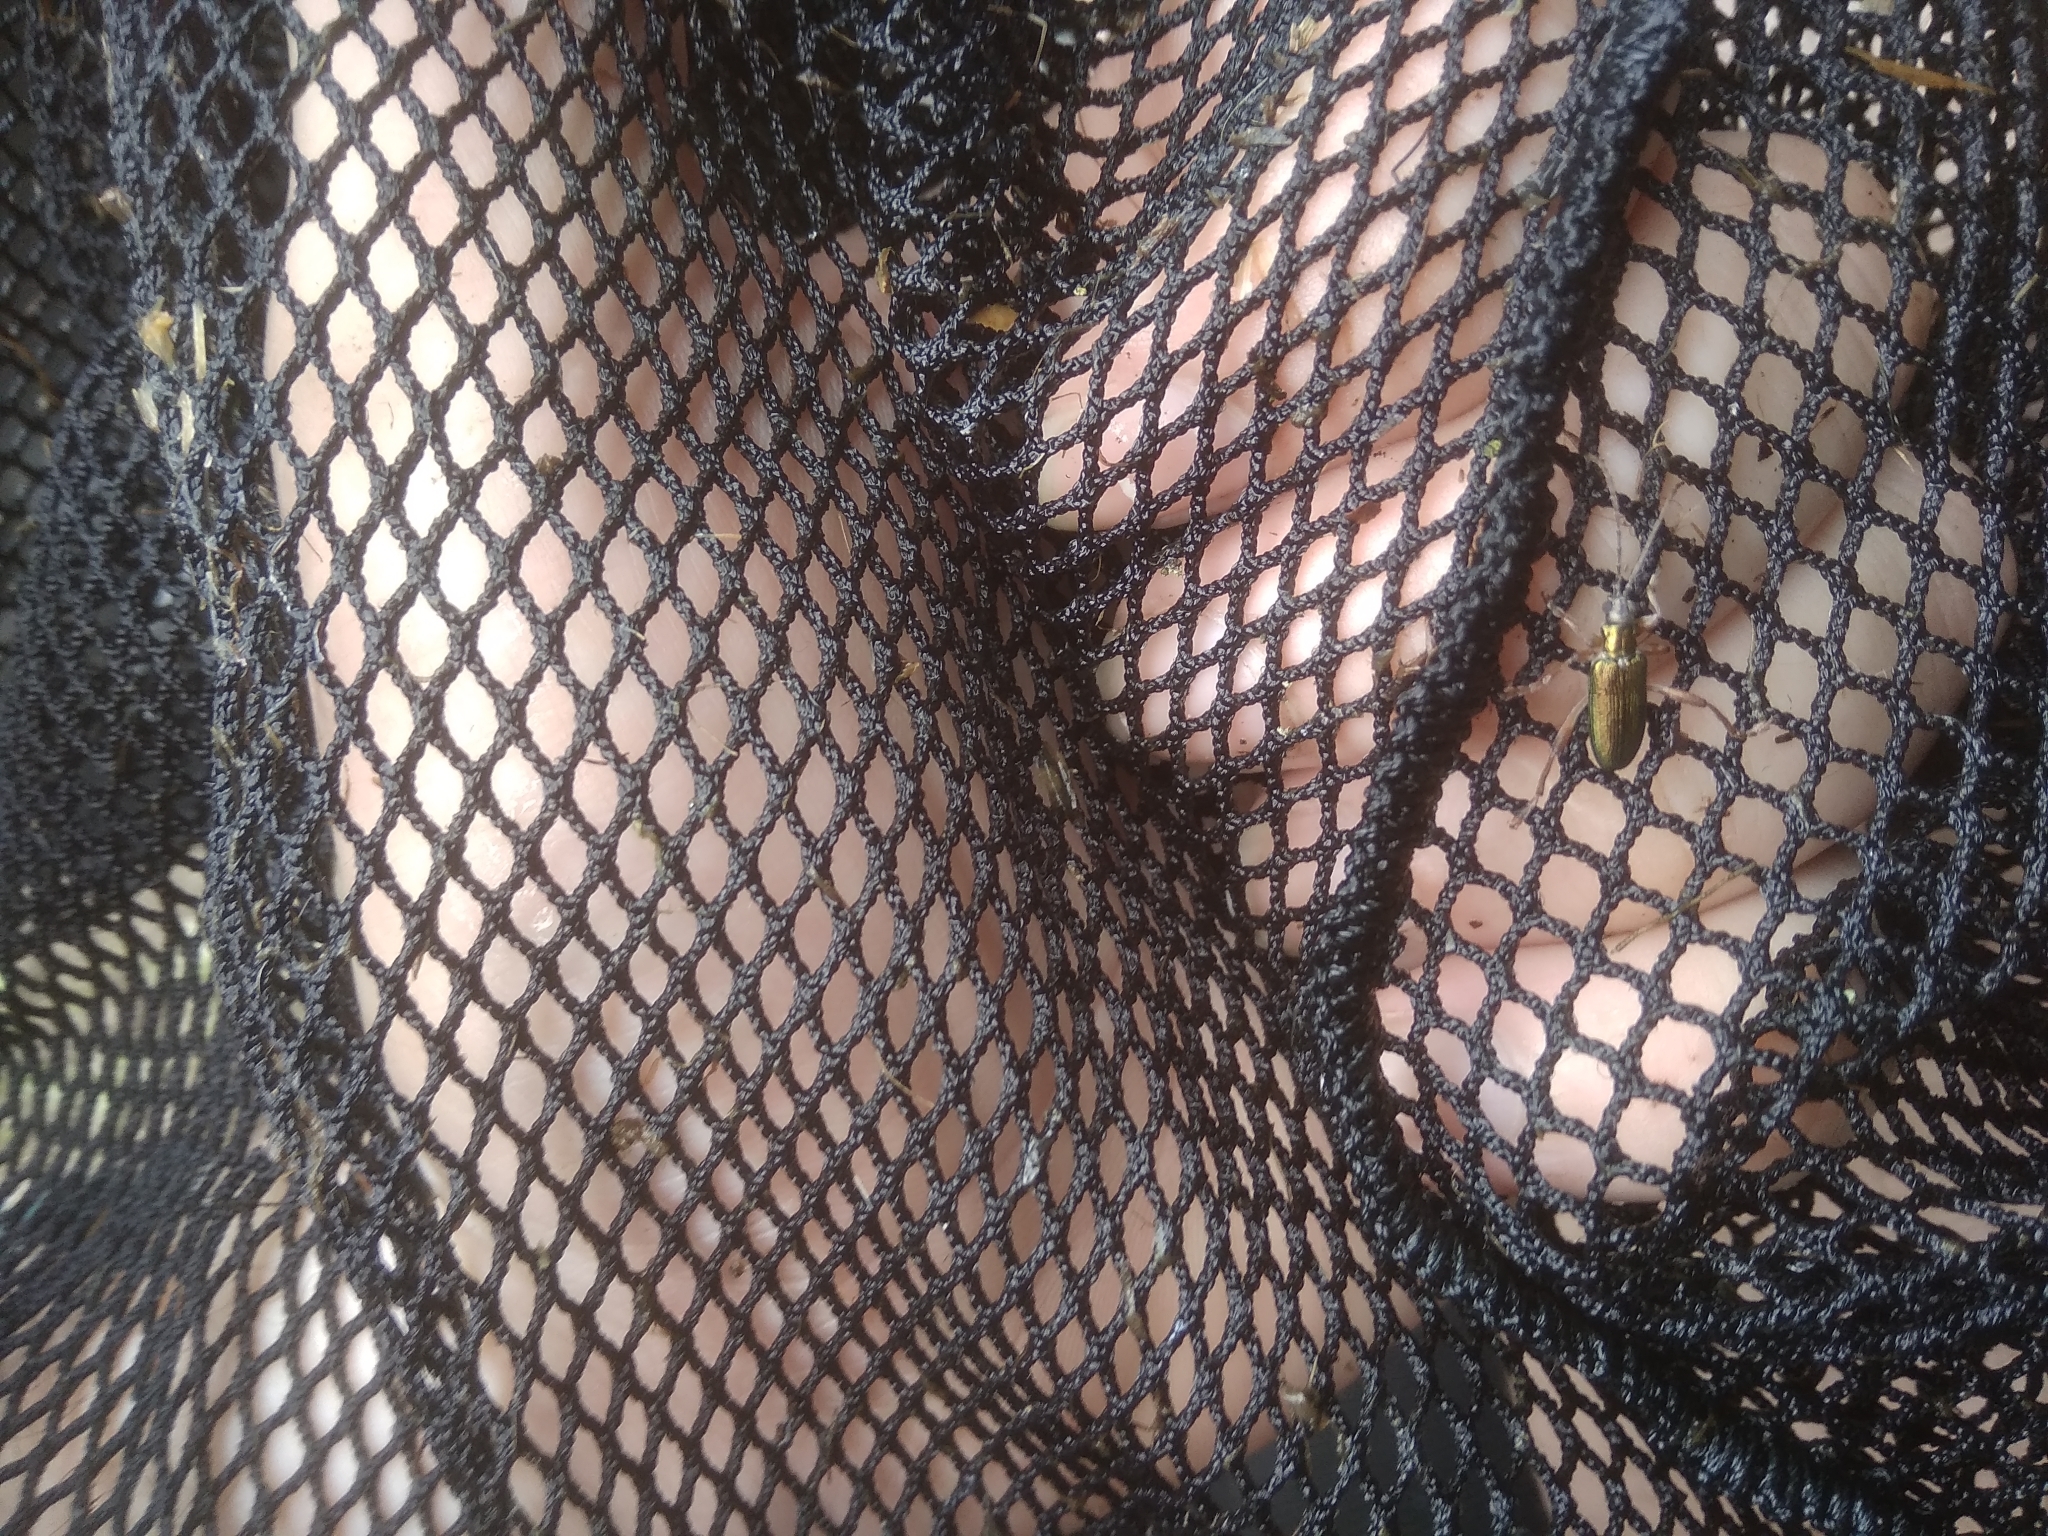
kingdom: Animalia
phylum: Arthropoda
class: Insecta
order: Coleoptera
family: Chrysomelidae
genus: Donacia
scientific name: Donacia clavipes
